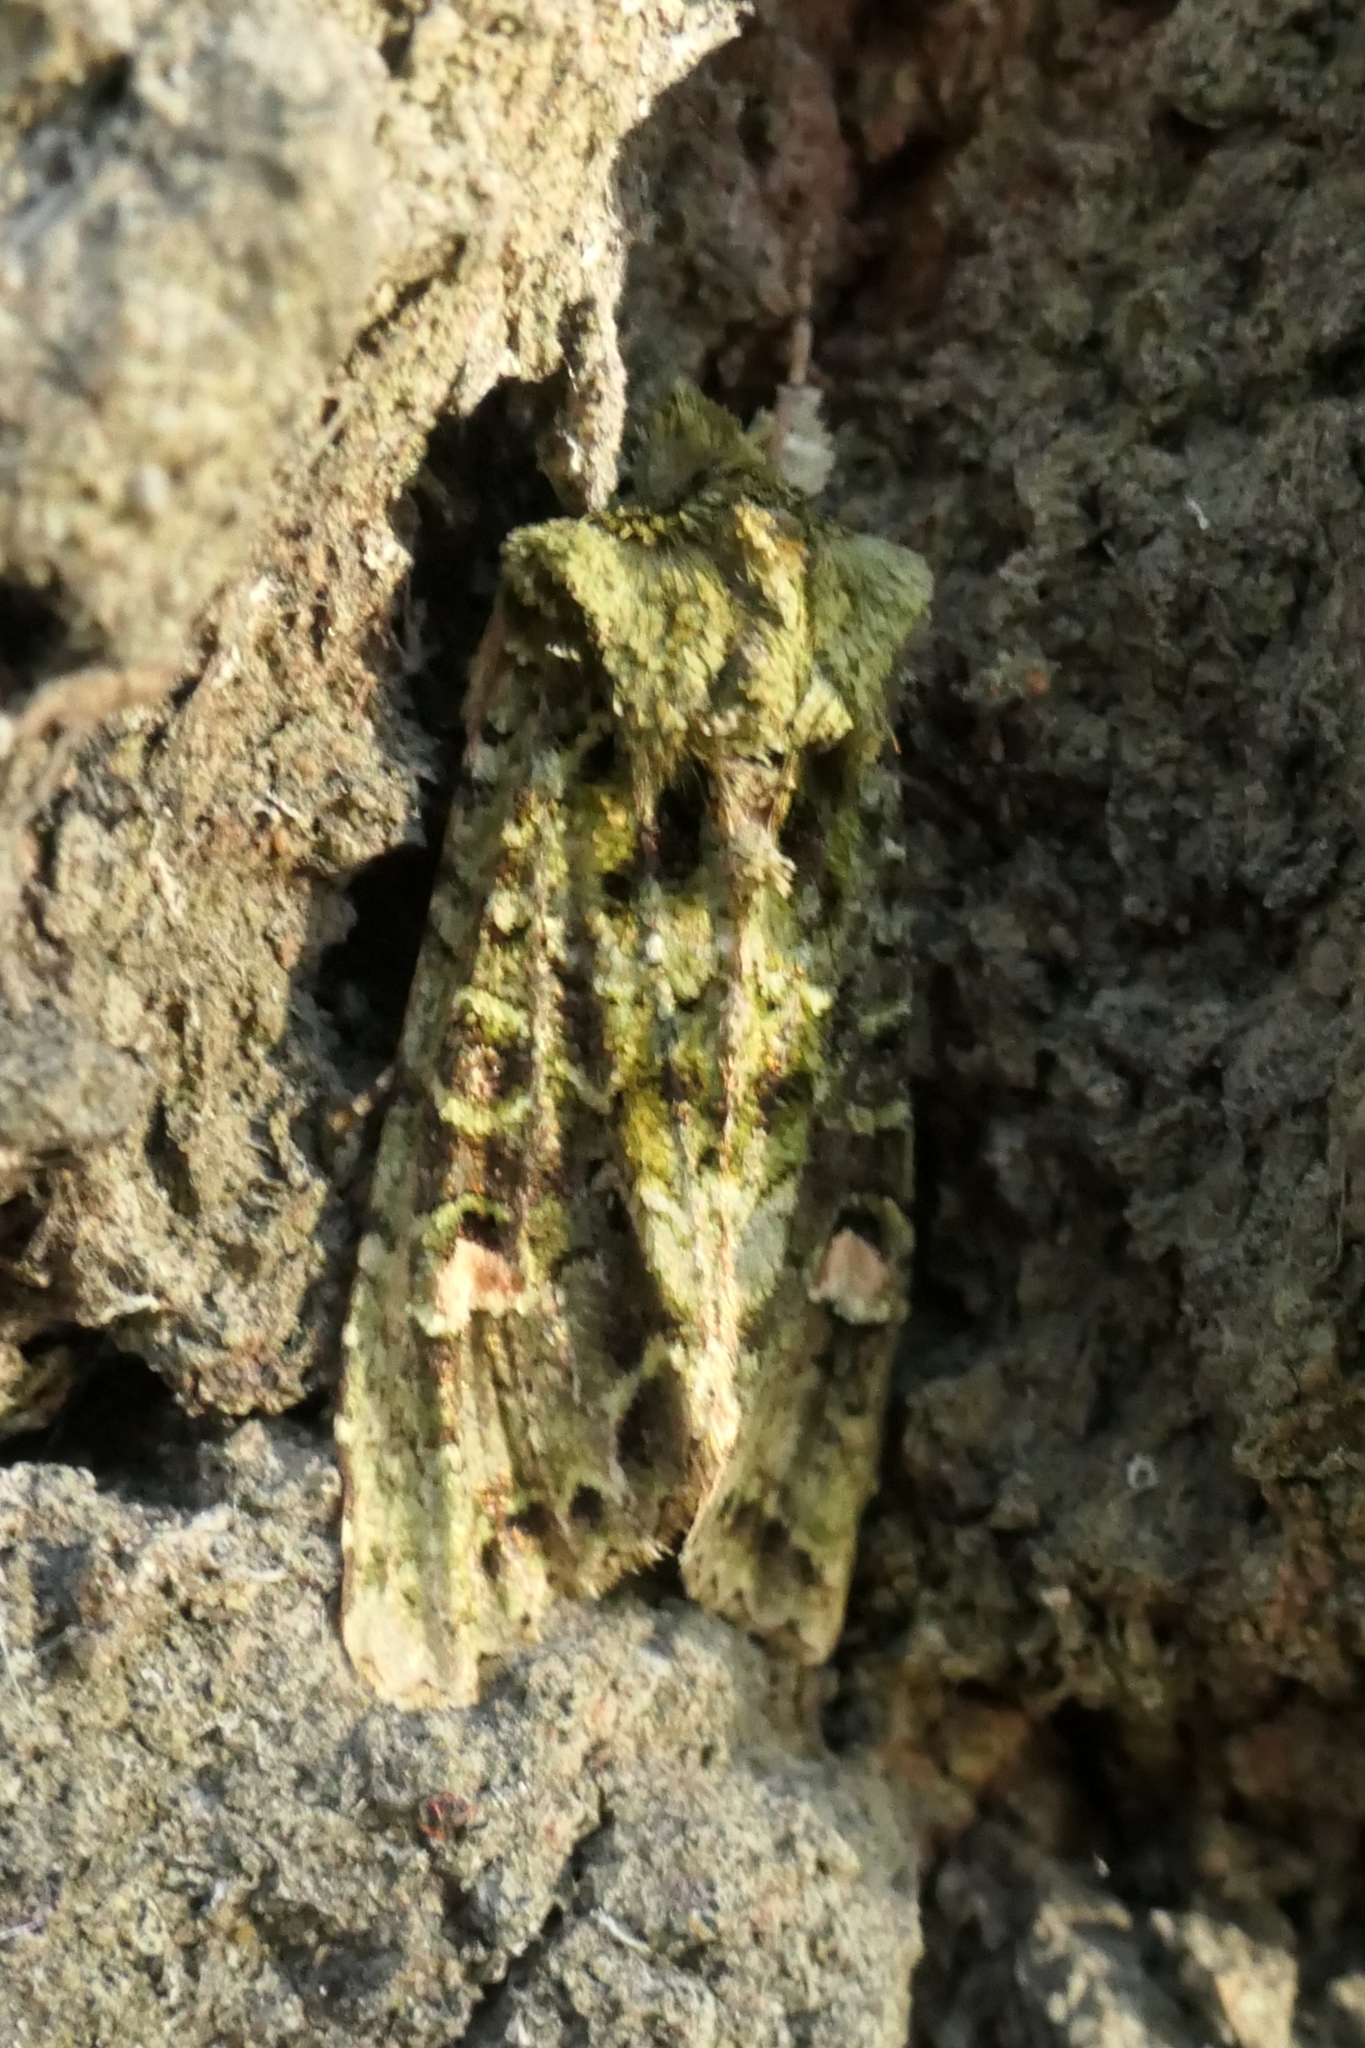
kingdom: Animalia
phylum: Arthropoda
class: Insecta
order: Lepidoptera
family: Noctuidae
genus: Ichneutica
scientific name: Ichneutica
